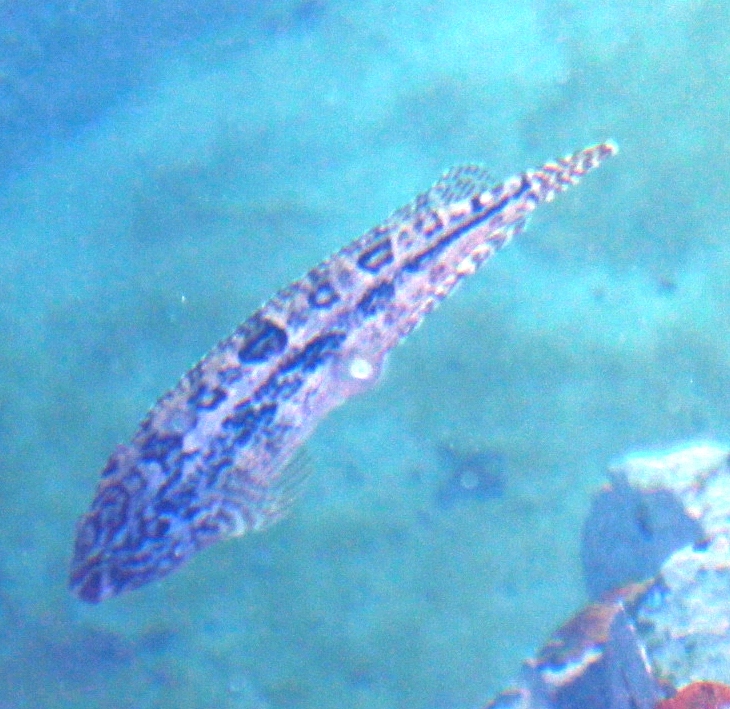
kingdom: Animalia
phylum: Chordata
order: Perciformes
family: Clinidae
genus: Clinus
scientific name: Clinus superciliosus
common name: Super klipfish
